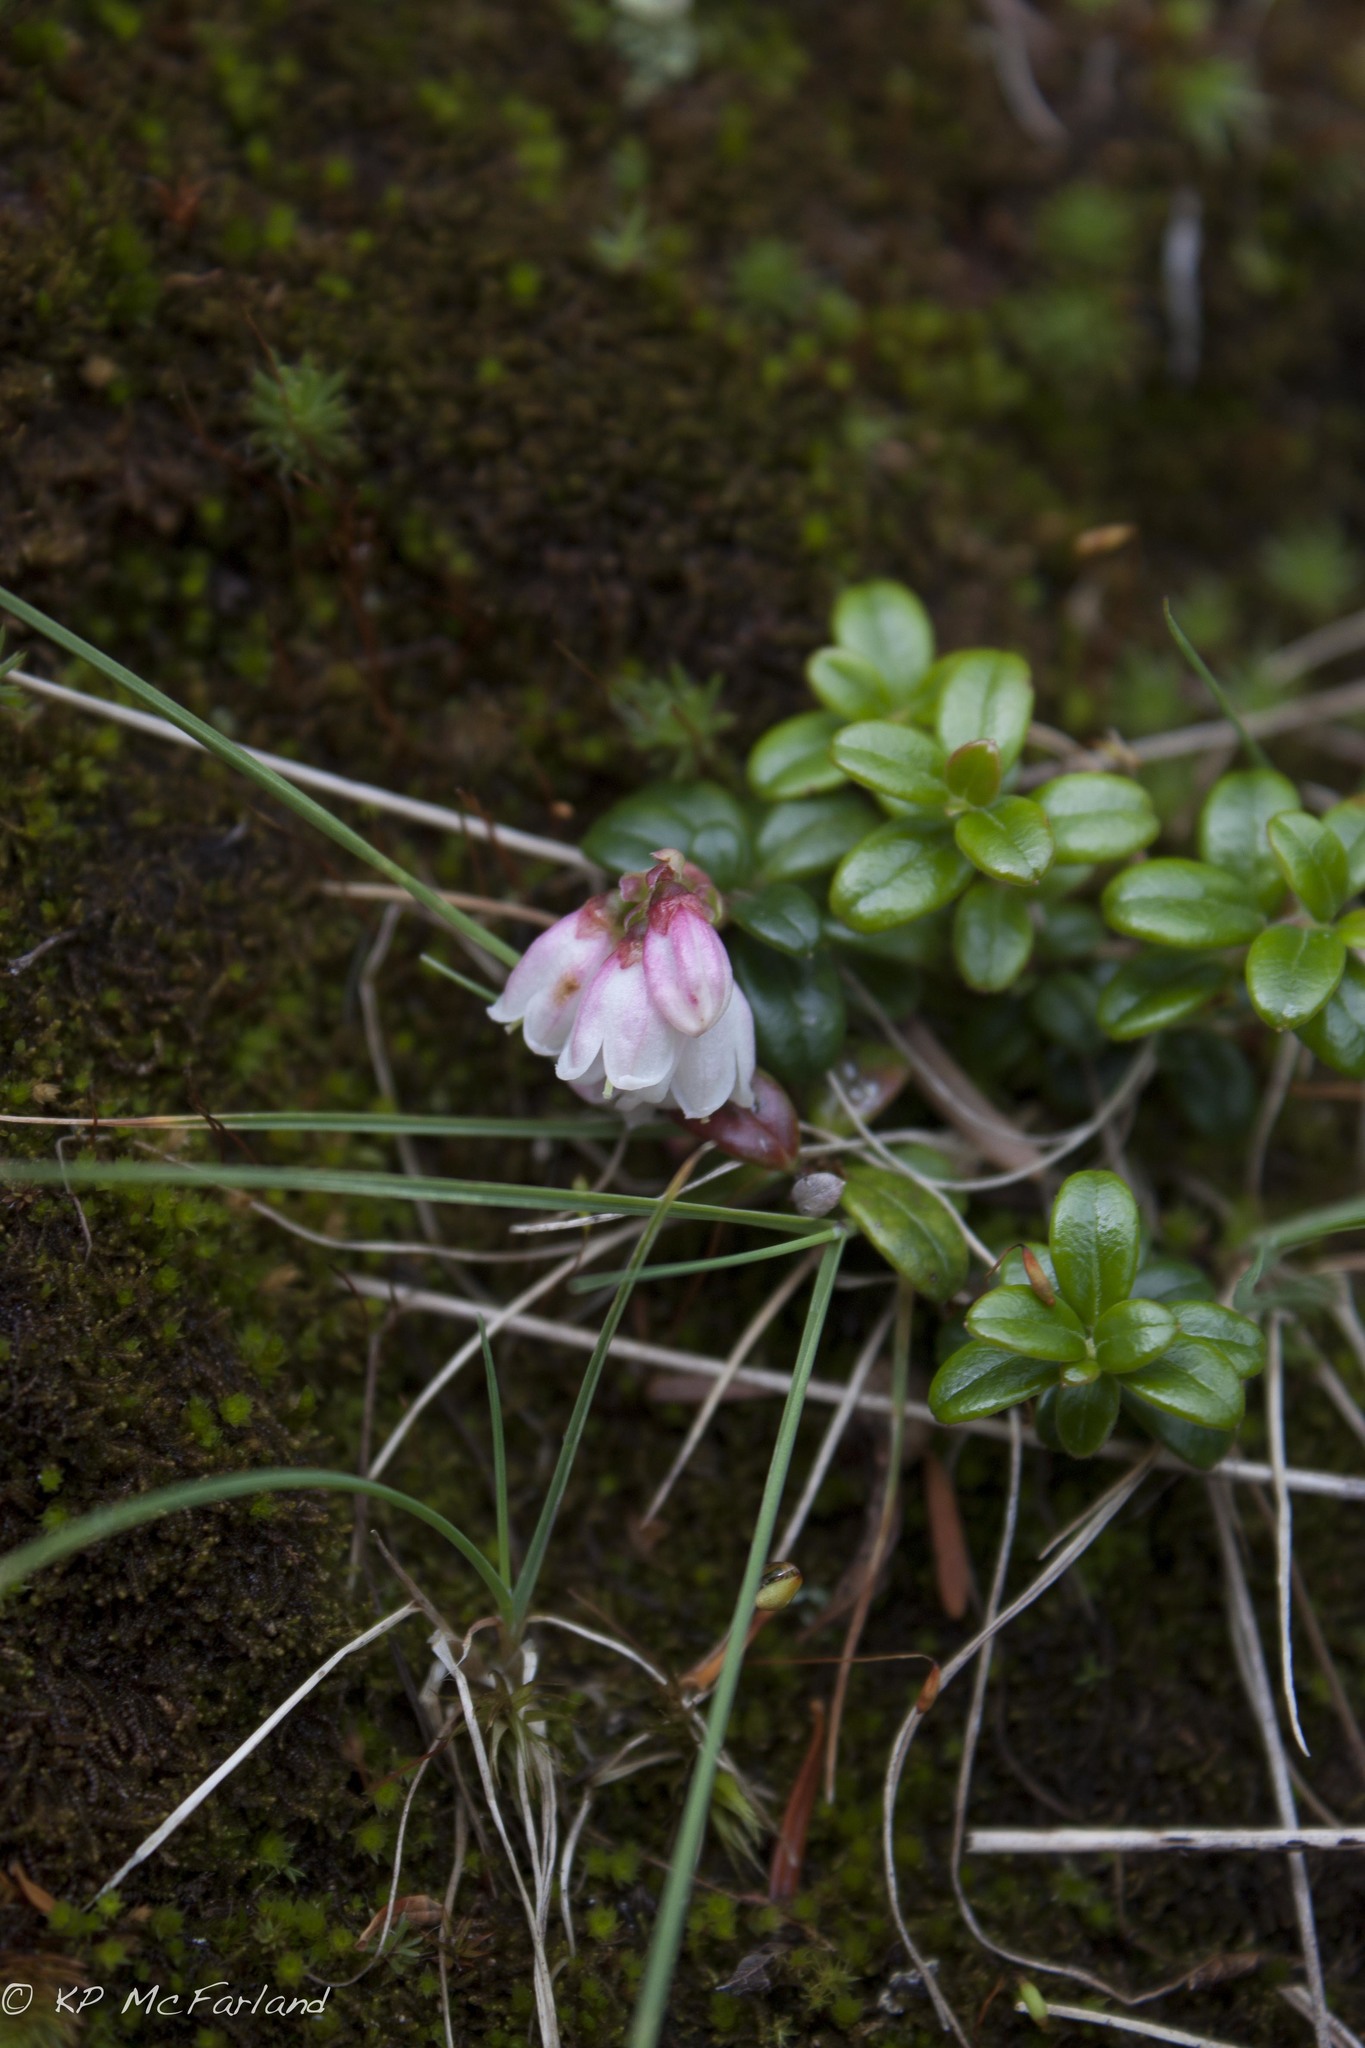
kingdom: Plantae
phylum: Tracheophyta
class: Magnoliopsida
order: Ericales
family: Ericaceae
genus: Vaccinium
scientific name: Vaccinium vitis-idaea
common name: Cowberry
